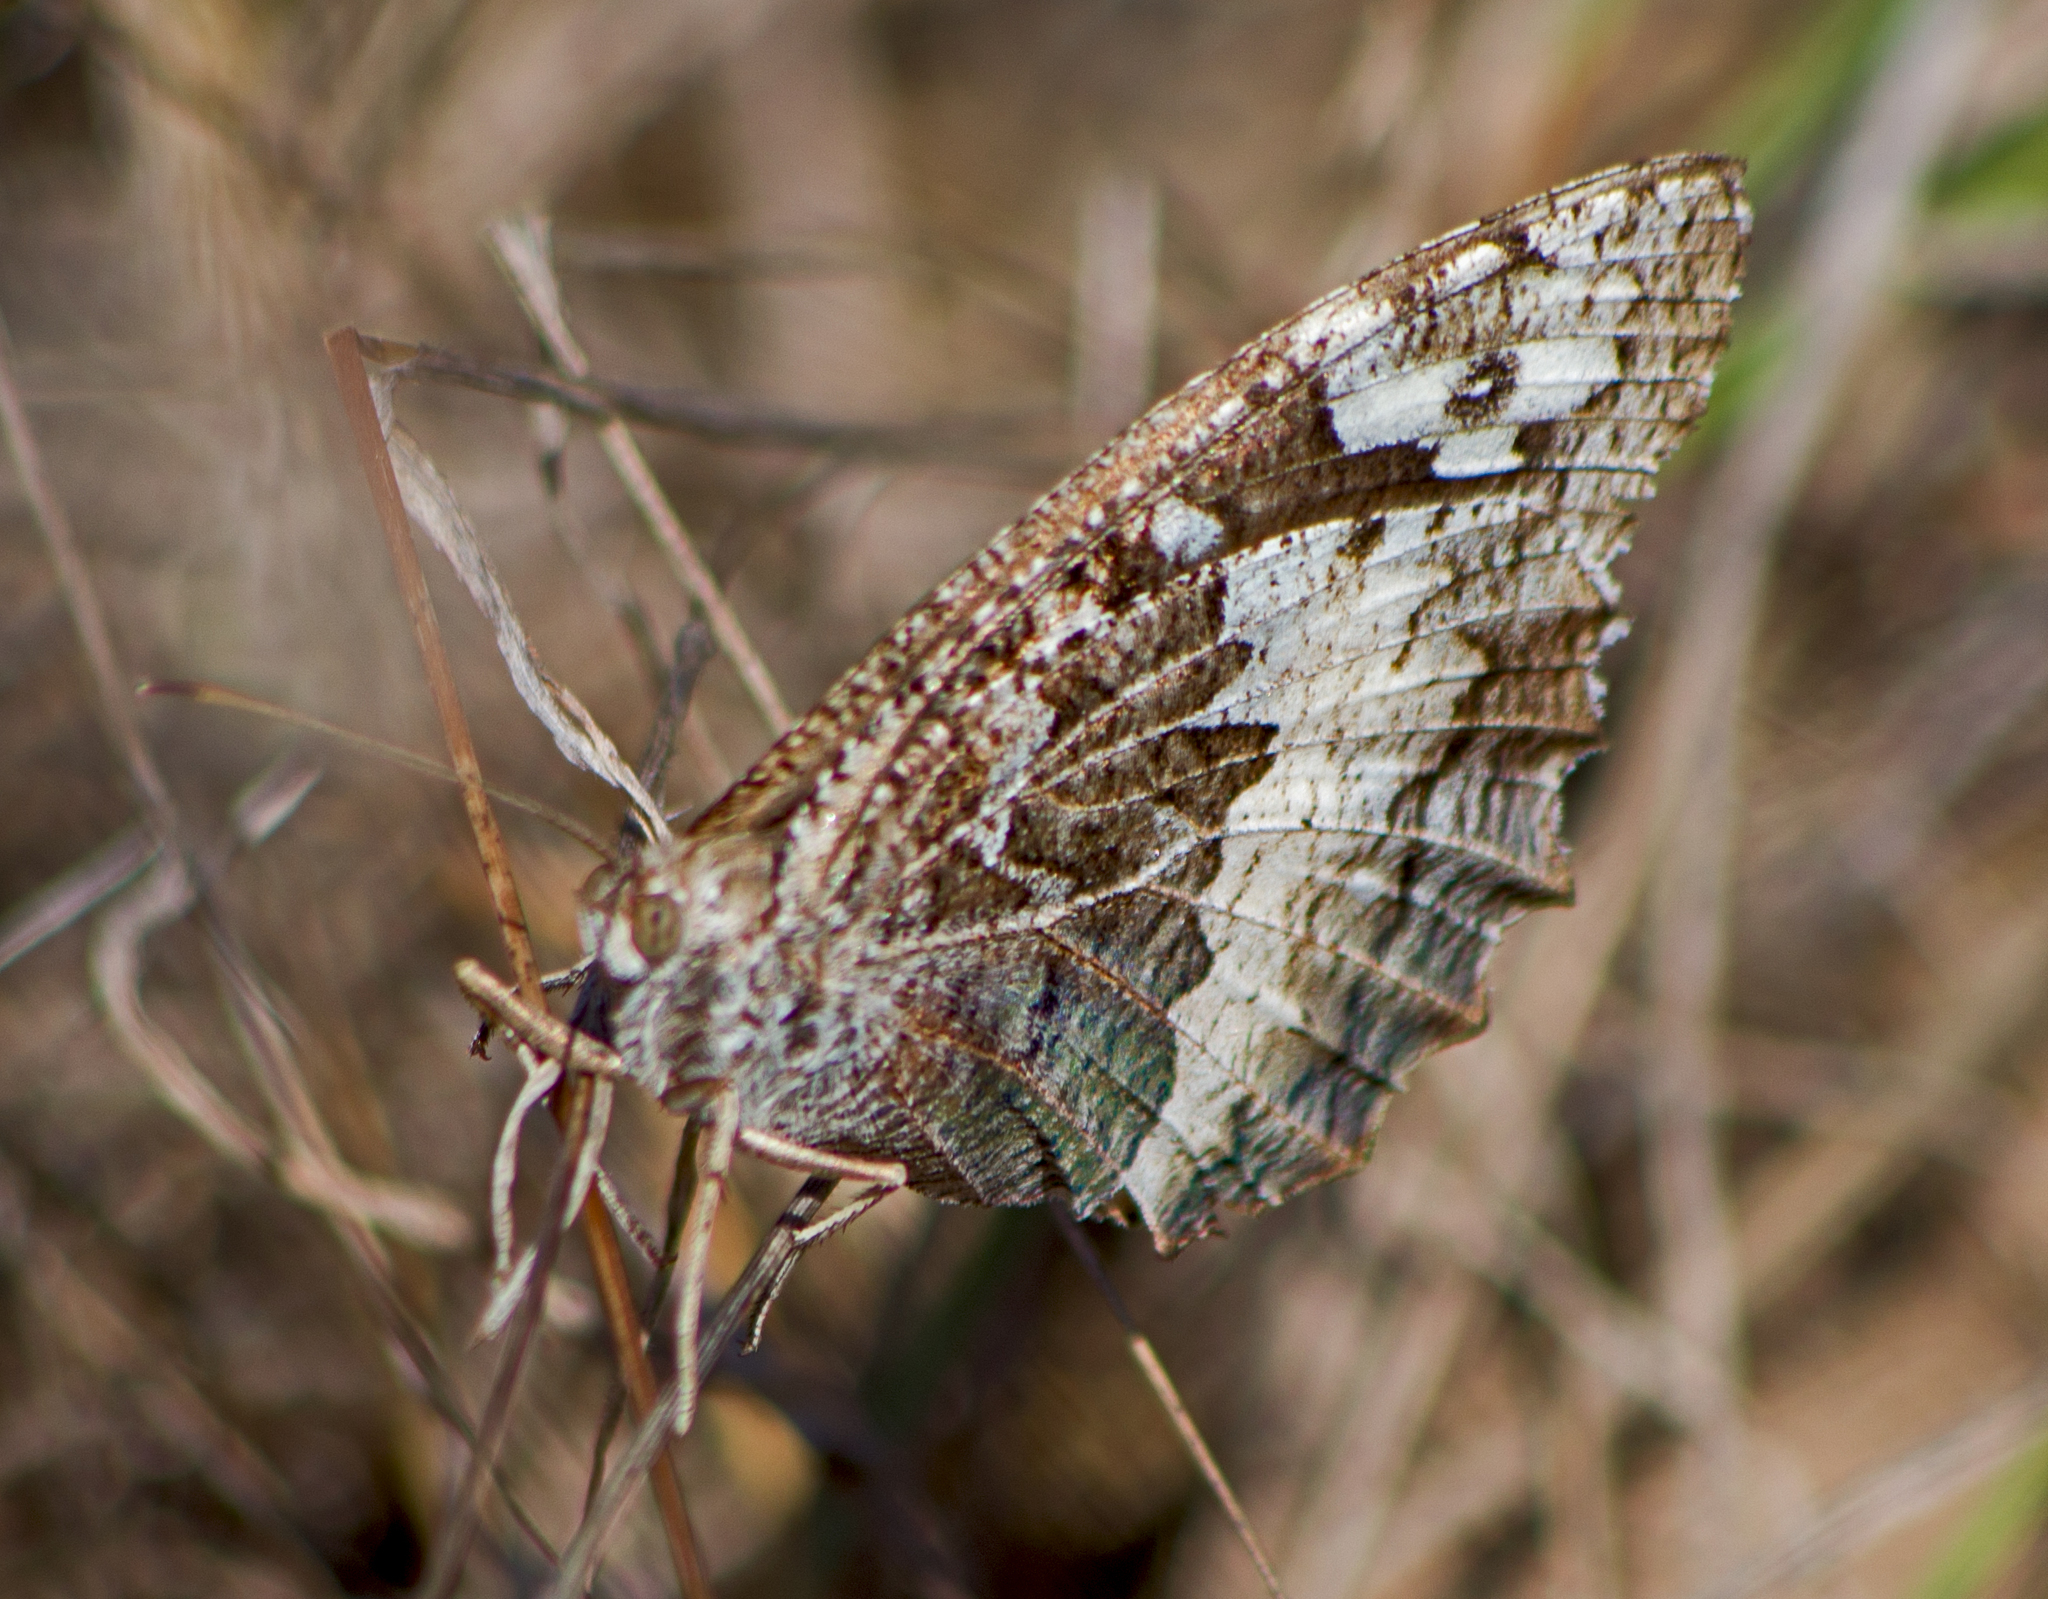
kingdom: Animalia
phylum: Arthropoda
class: Insecta
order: Lepidoptera
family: Lycaenidae
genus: Loweia
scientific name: Loweia tityrus
